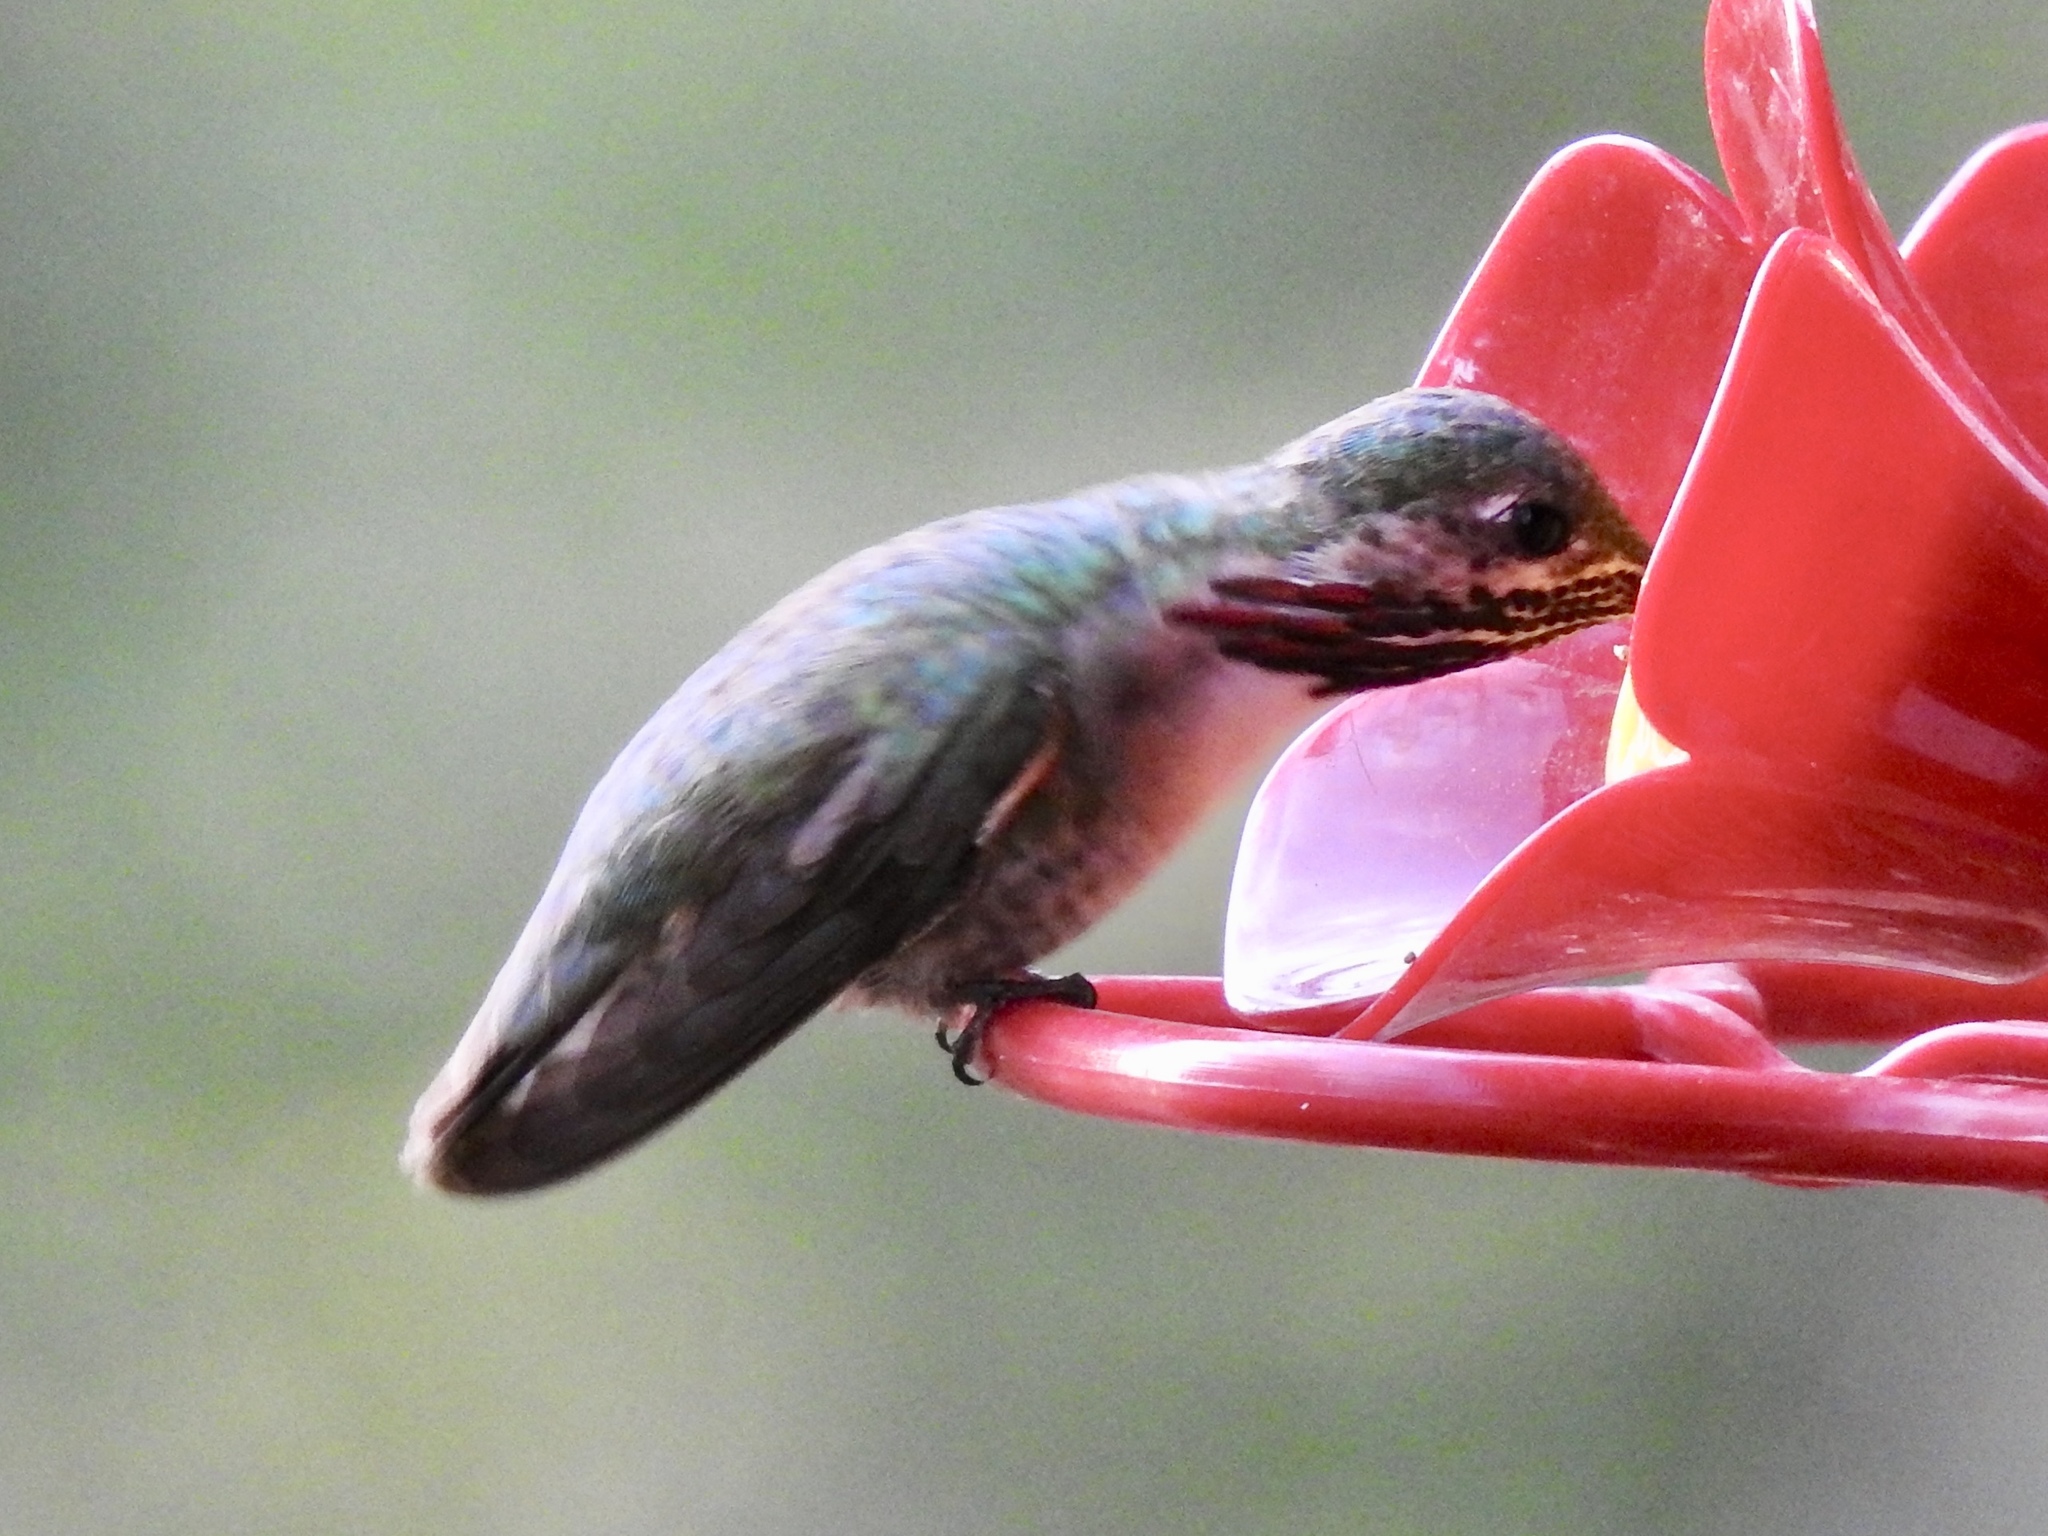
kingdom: Animalia
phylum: Chordata
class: Aves
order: Apodiformes
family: Trochilidae
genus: Selasphorus
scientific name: Selasphorus calliope
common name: Calliope hummingbird
